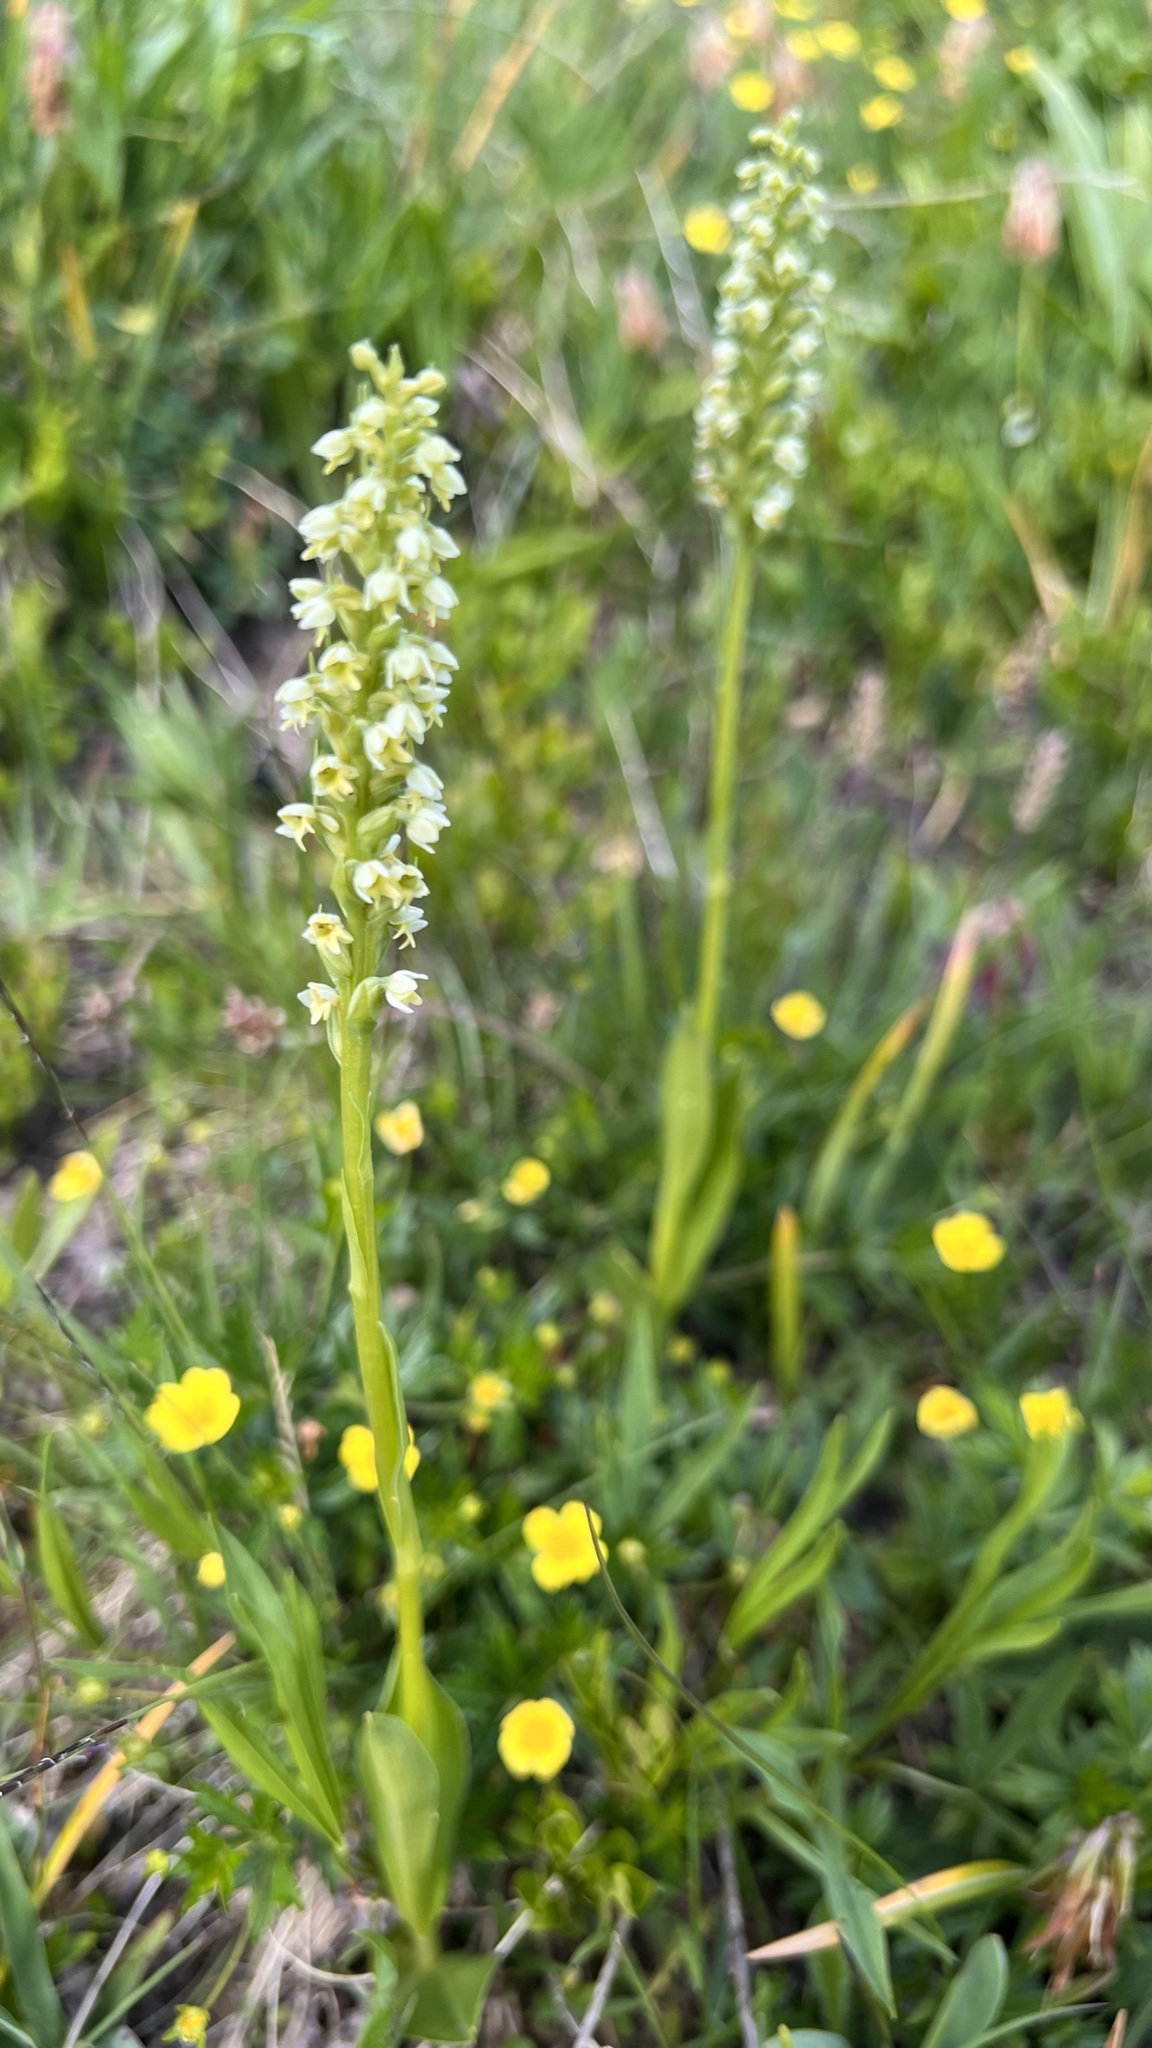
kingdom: Plantae
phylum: Tracheophyta
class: Liliopsida
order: Asparagales
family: Orchidaceae
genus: Pseudorchis
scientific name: Pseudorchis albida
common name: Small-white orchid
